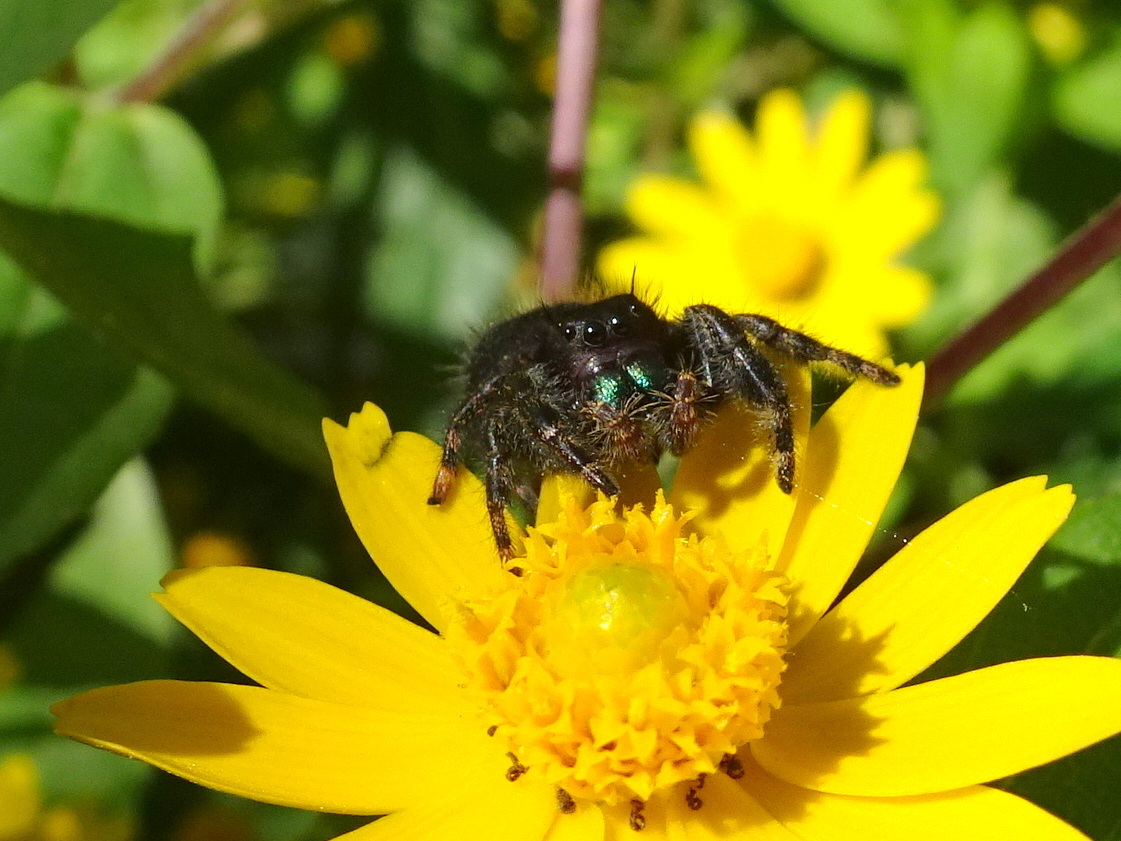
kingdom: Animalia
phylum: Arthropoda
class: Arachnida
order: Araneae
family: Salticidae
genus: Phidippus
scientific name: Phidippus audax
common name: Bold jumper
